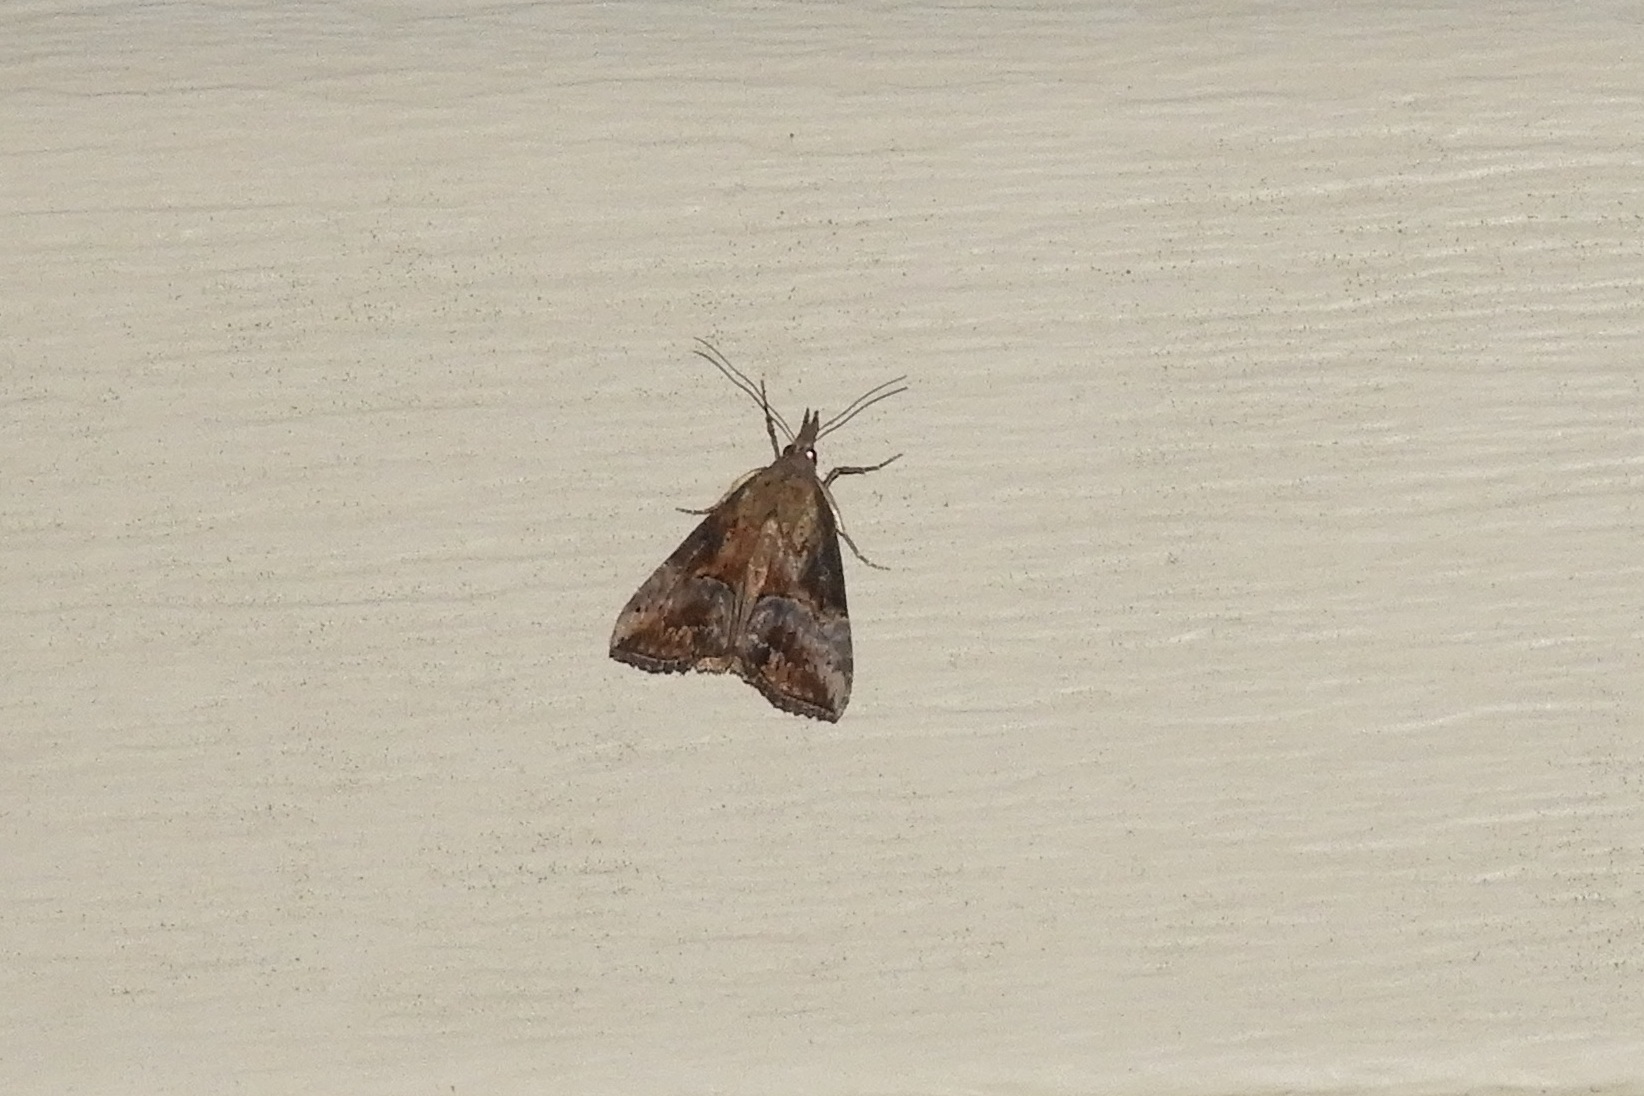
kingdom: Animalia
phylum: Arthropoda
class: Insecta
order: Lepidoptera
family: Erebidae
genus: Hypena
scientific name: Hypena scabra
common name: Green cloverworm
